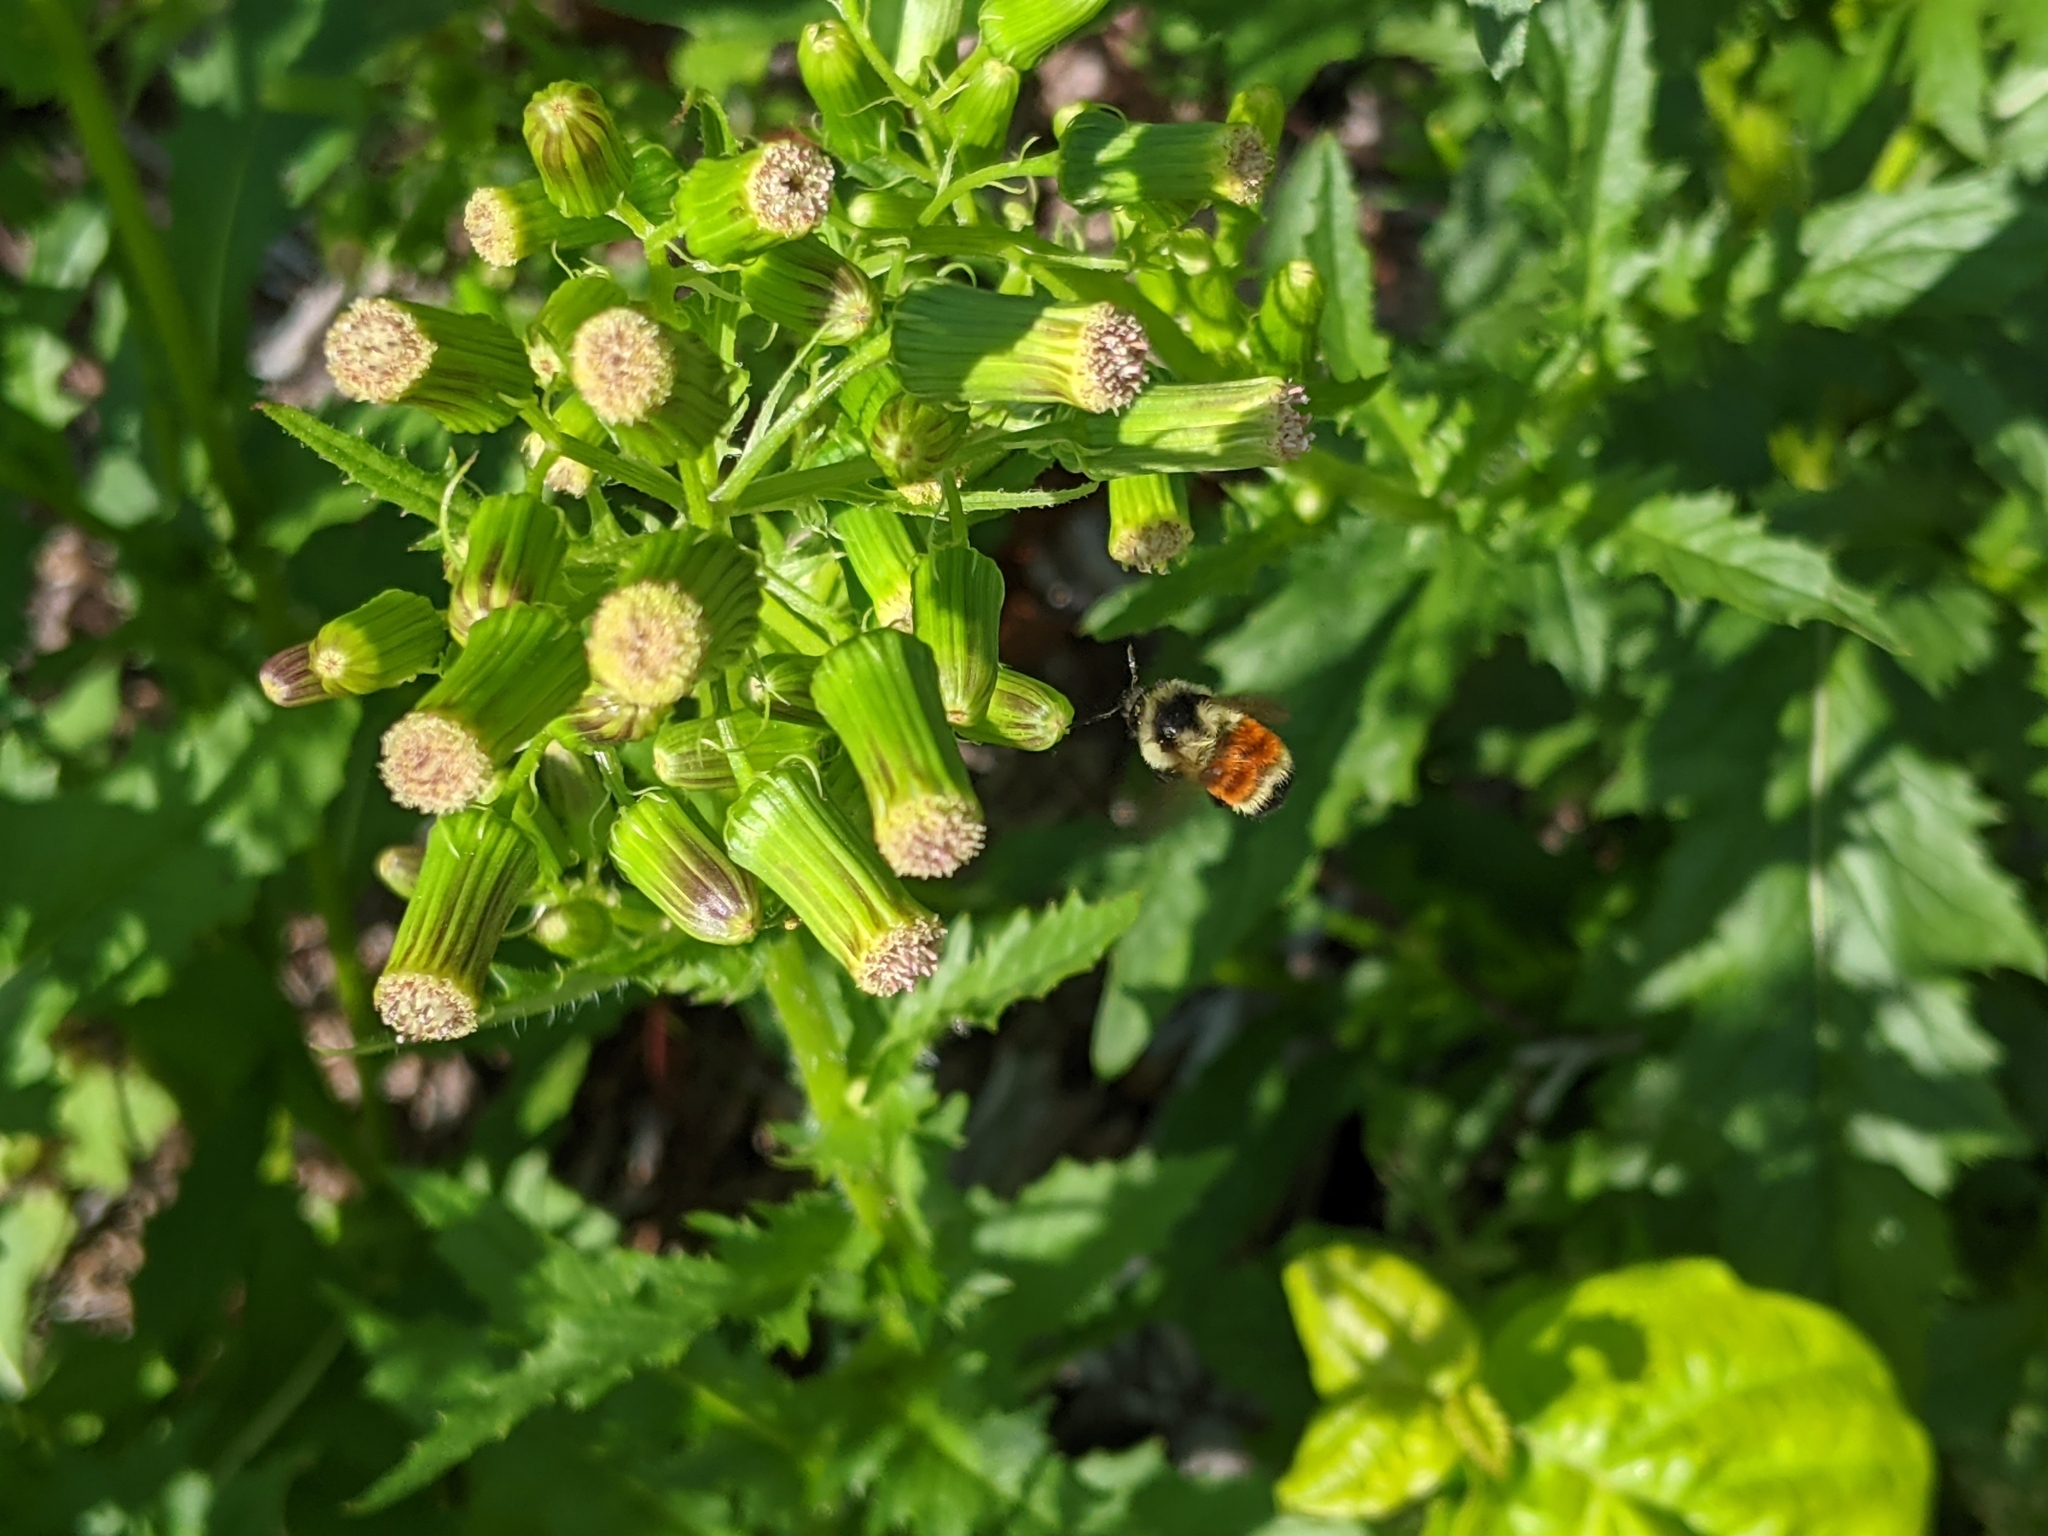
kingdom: Animalia
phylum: Arthropoda
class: Insecta
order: Hymenoptera
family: Apidae
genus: Bombus
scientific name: Bombus ternarius
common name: Tri-colored bumble bee
